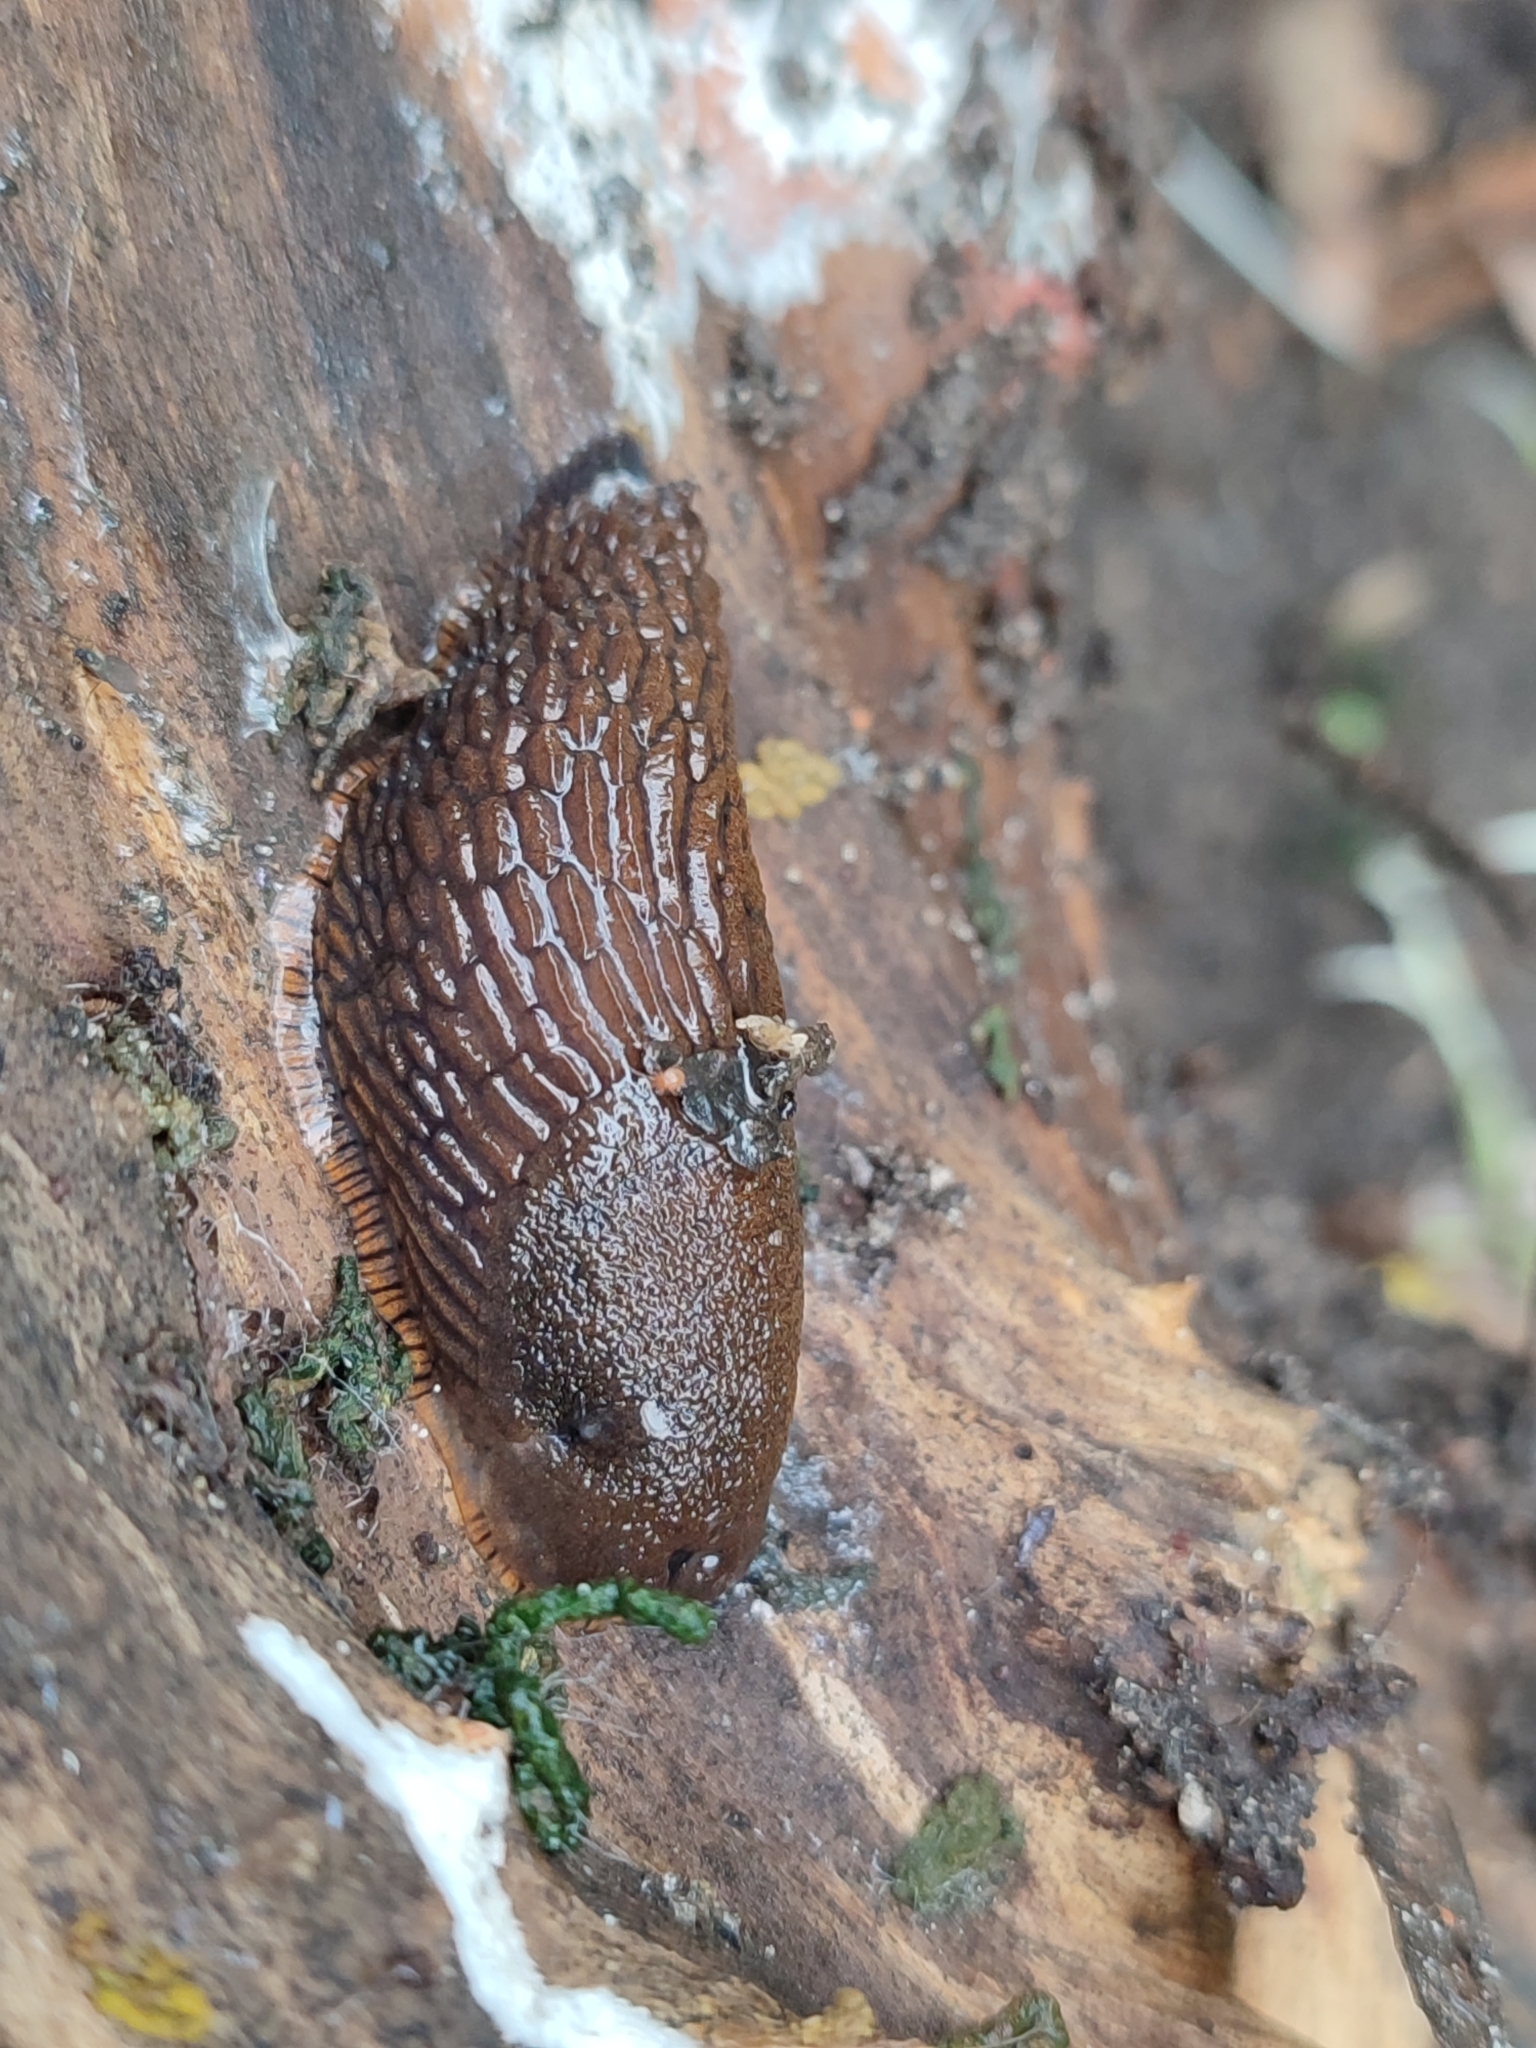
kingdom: Animalia
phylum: Mollusca
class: Gastropoda
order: Stylommatophora
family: Arionidae
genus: Arion
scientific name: Arion vulgaris
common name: Lusitanian slug
